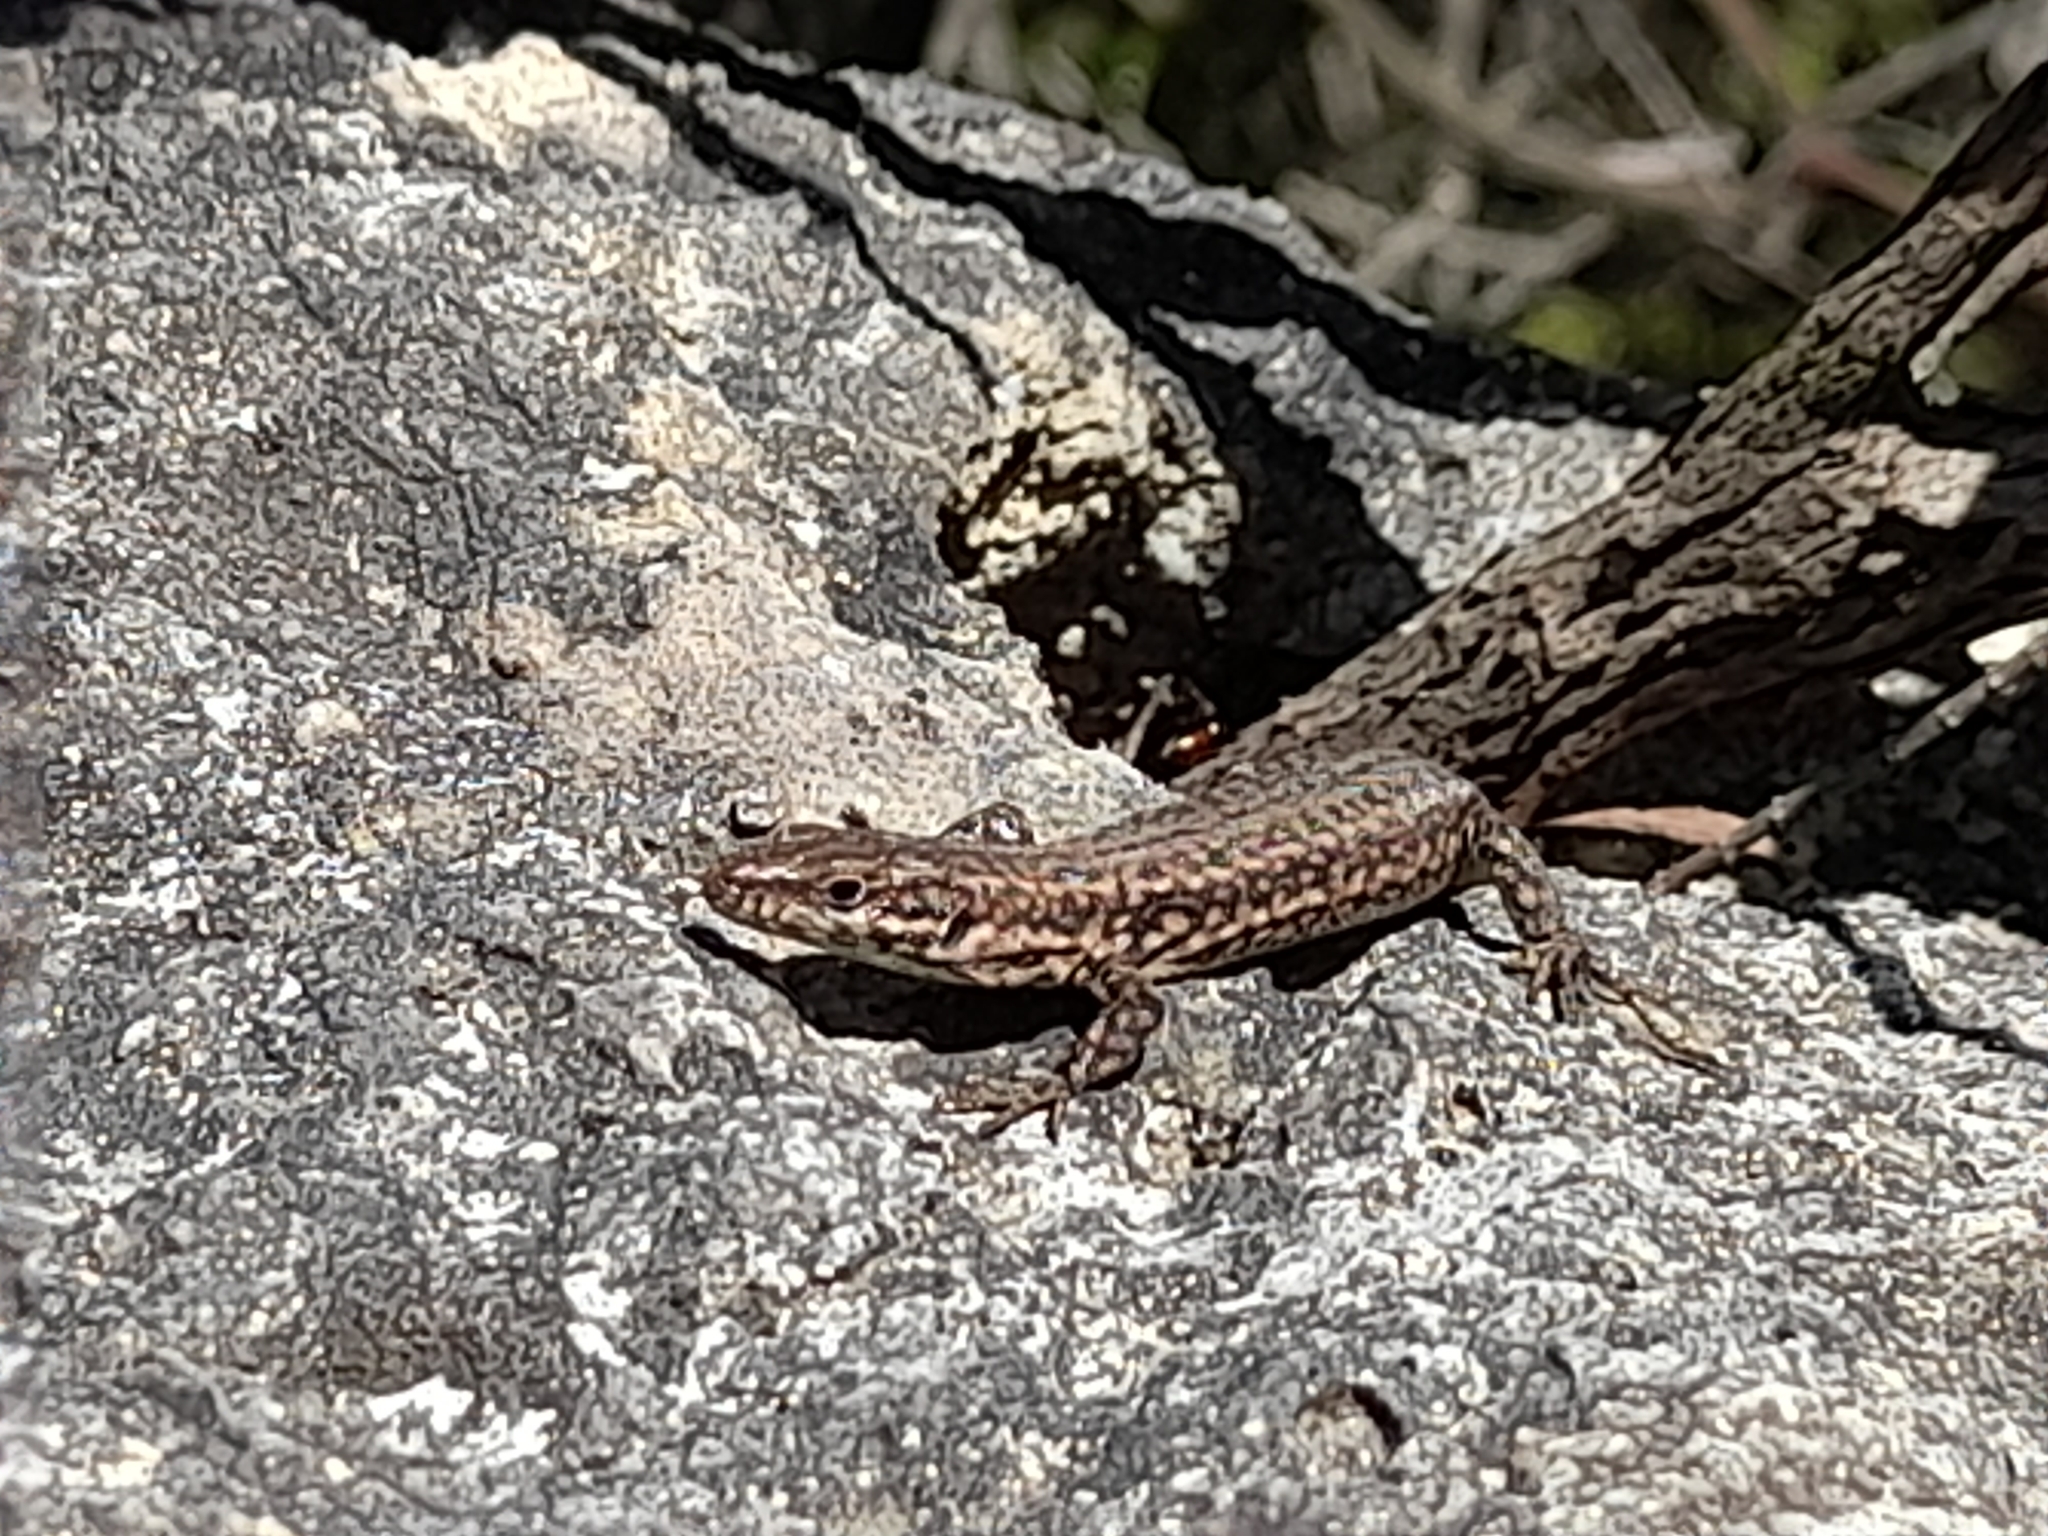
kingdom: Animalia
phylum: Chordata
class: Squamata
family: Lacertidae
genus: Podarcis
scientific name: Podarcis liolepis
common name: Catalonian wall lizard
